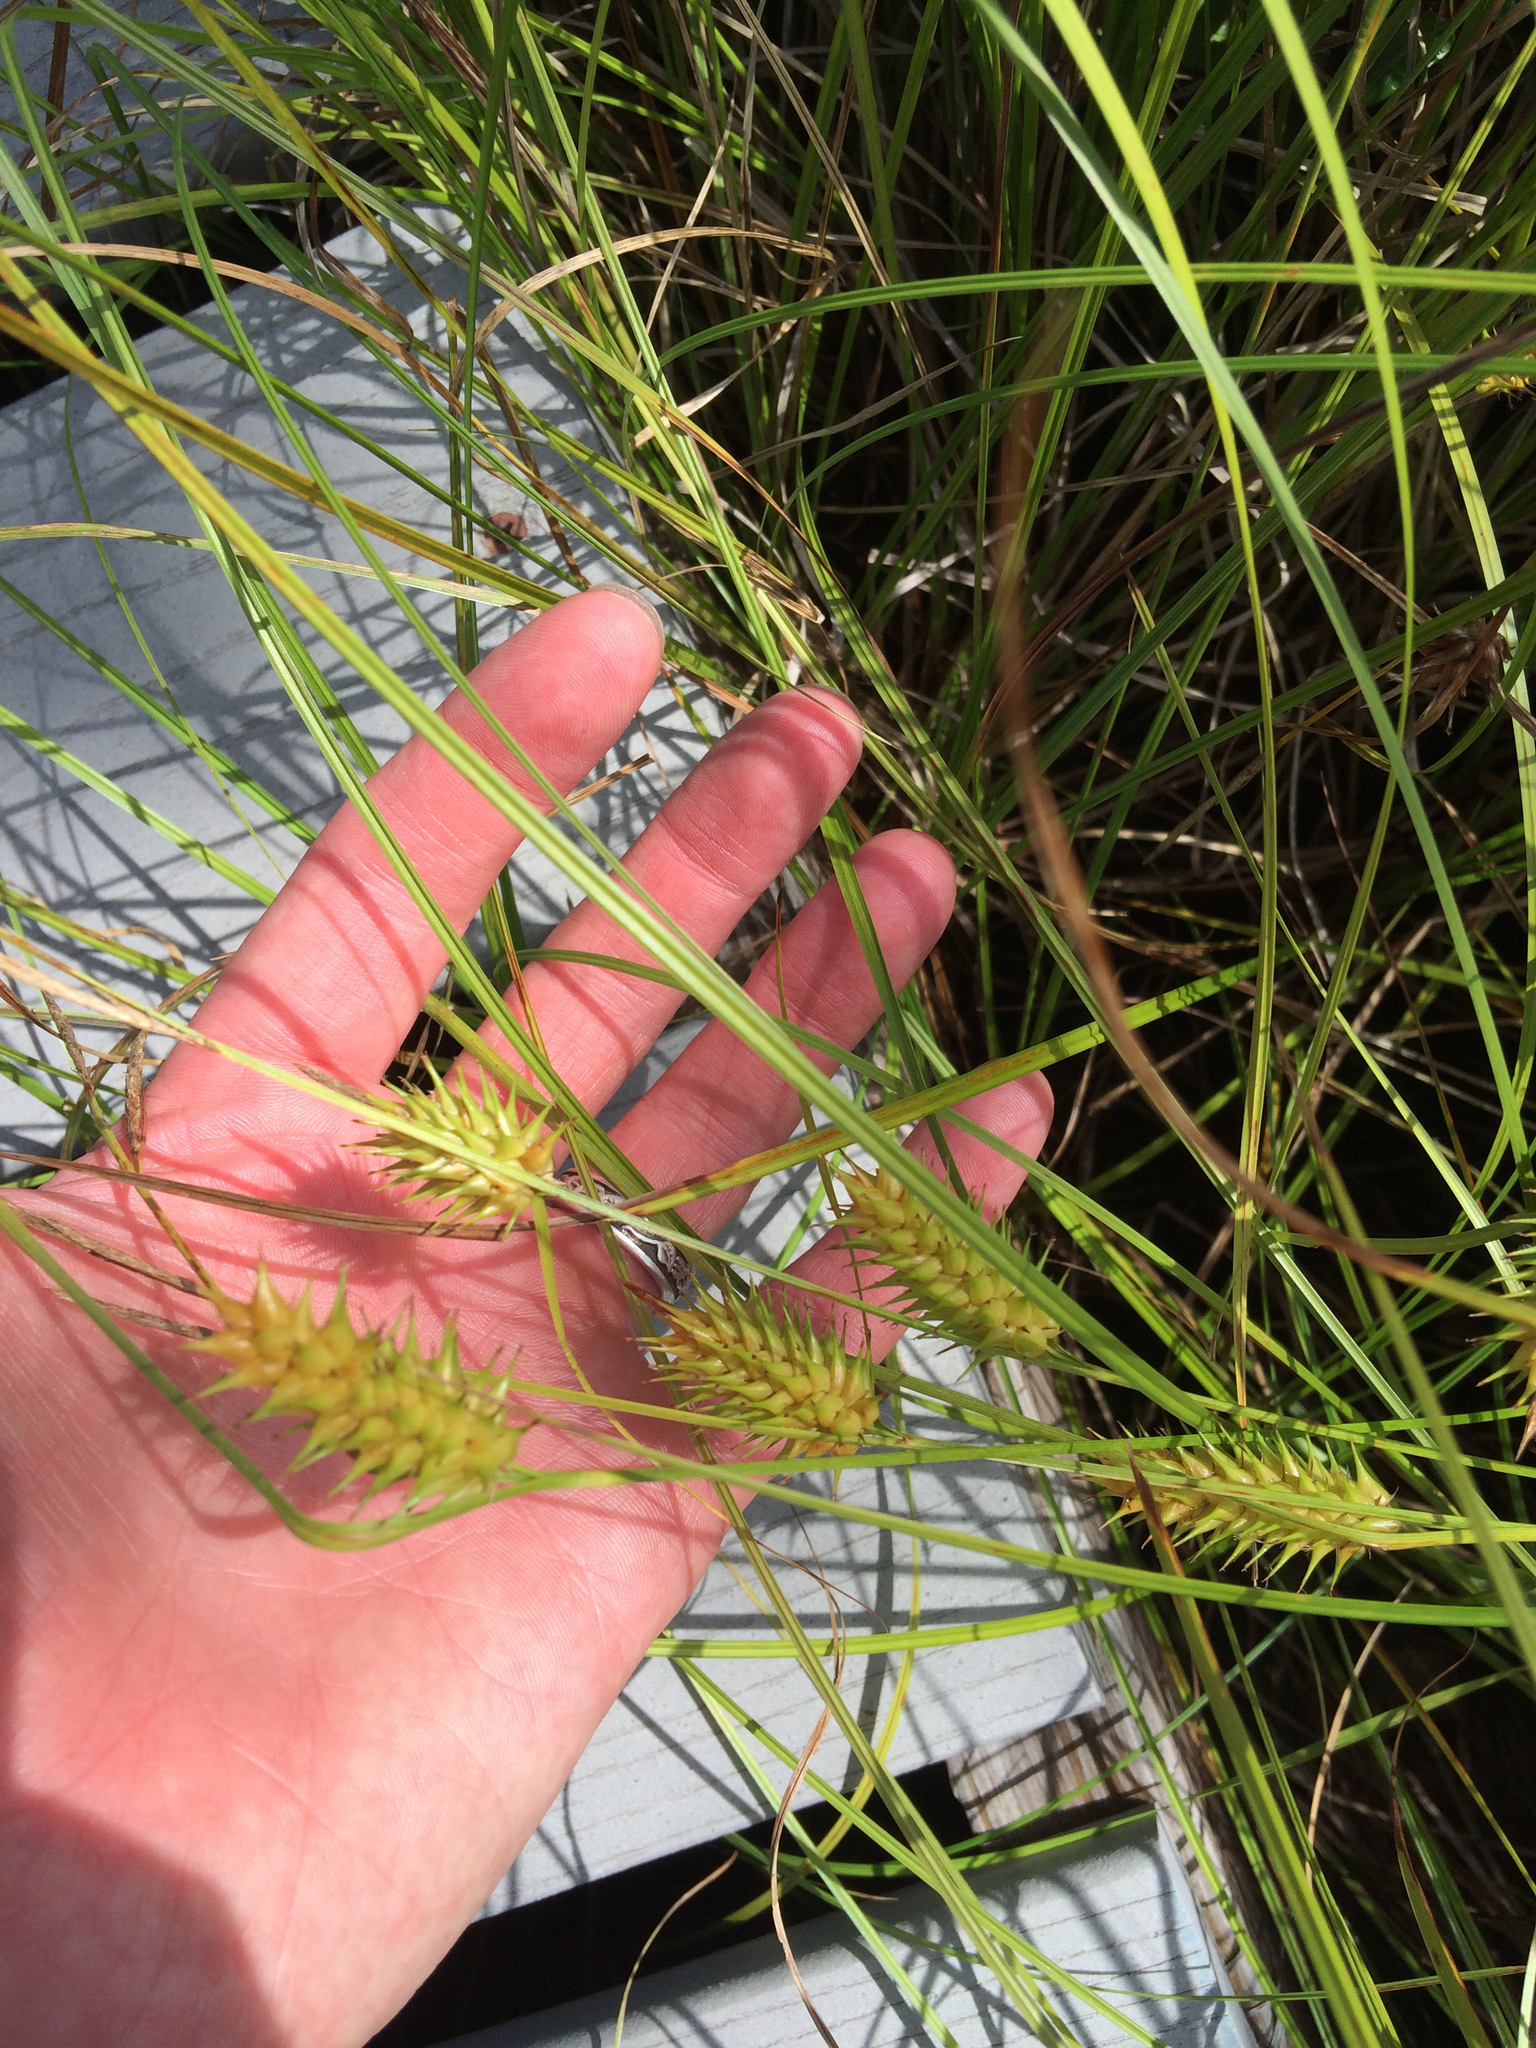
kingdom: Plantae
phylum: Tracheophyta
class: Liliopsida
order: Poales
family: Cyperaceae
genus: Carex
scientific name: Carex bullata
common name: Button sedge
